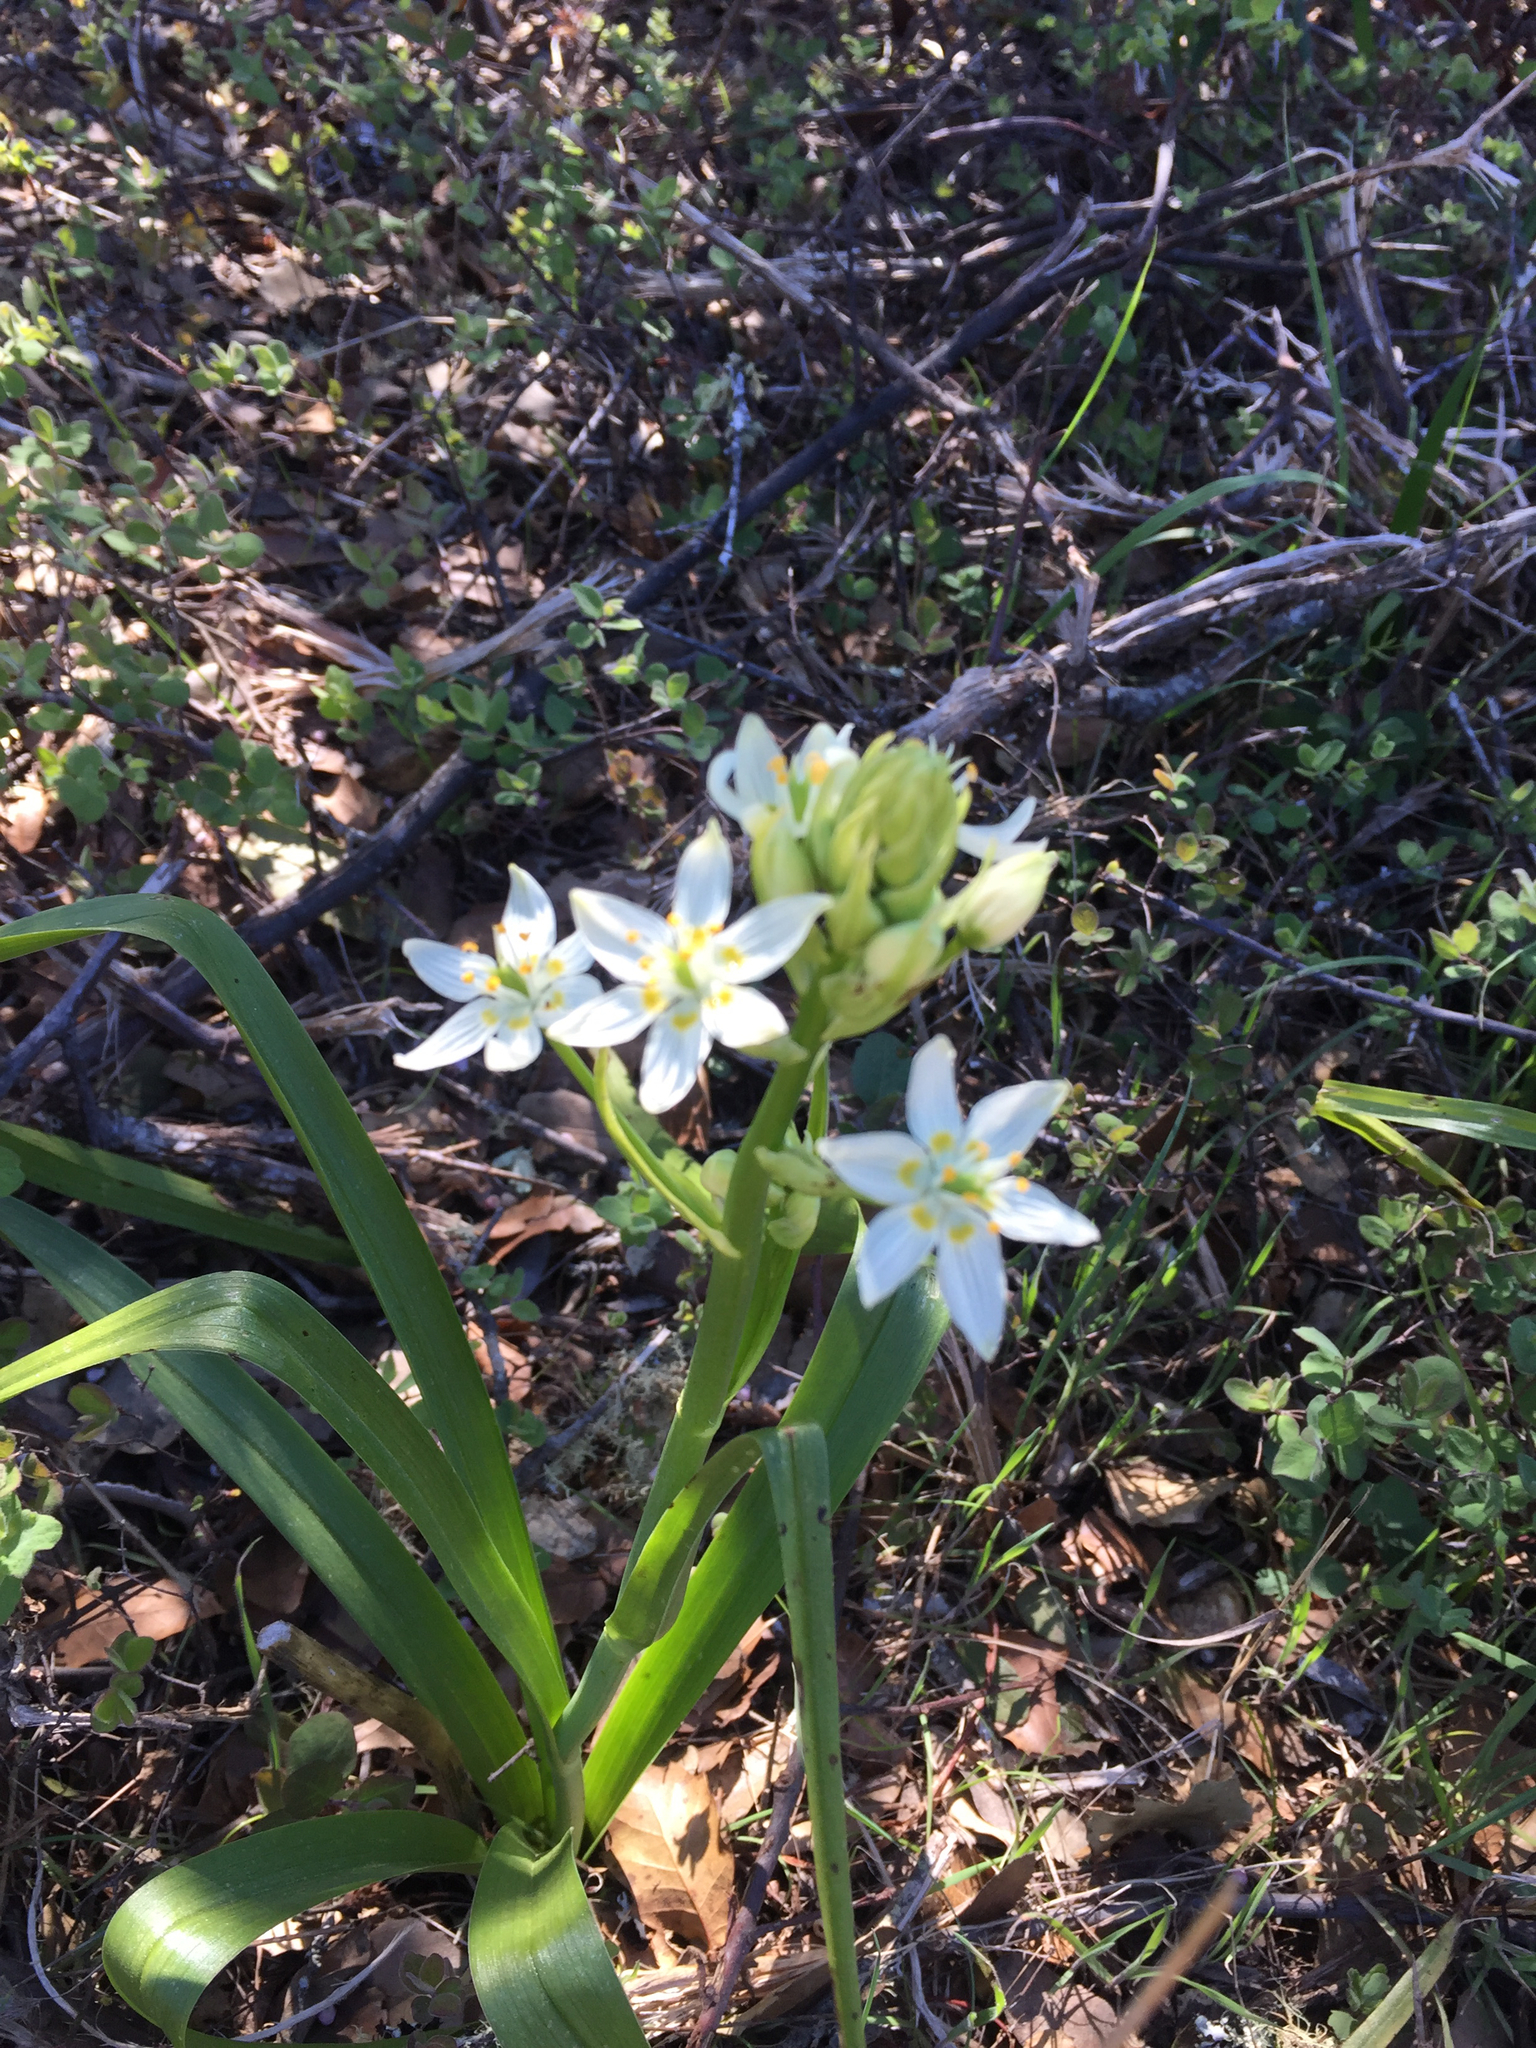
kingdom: Plantae
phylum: Tracheophyta
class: Liliopsida
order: Liliales
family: Melanthiaceae
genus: Toxicoscordion
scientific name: Toxicoscordion fremontii
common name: Fremont's death camas
